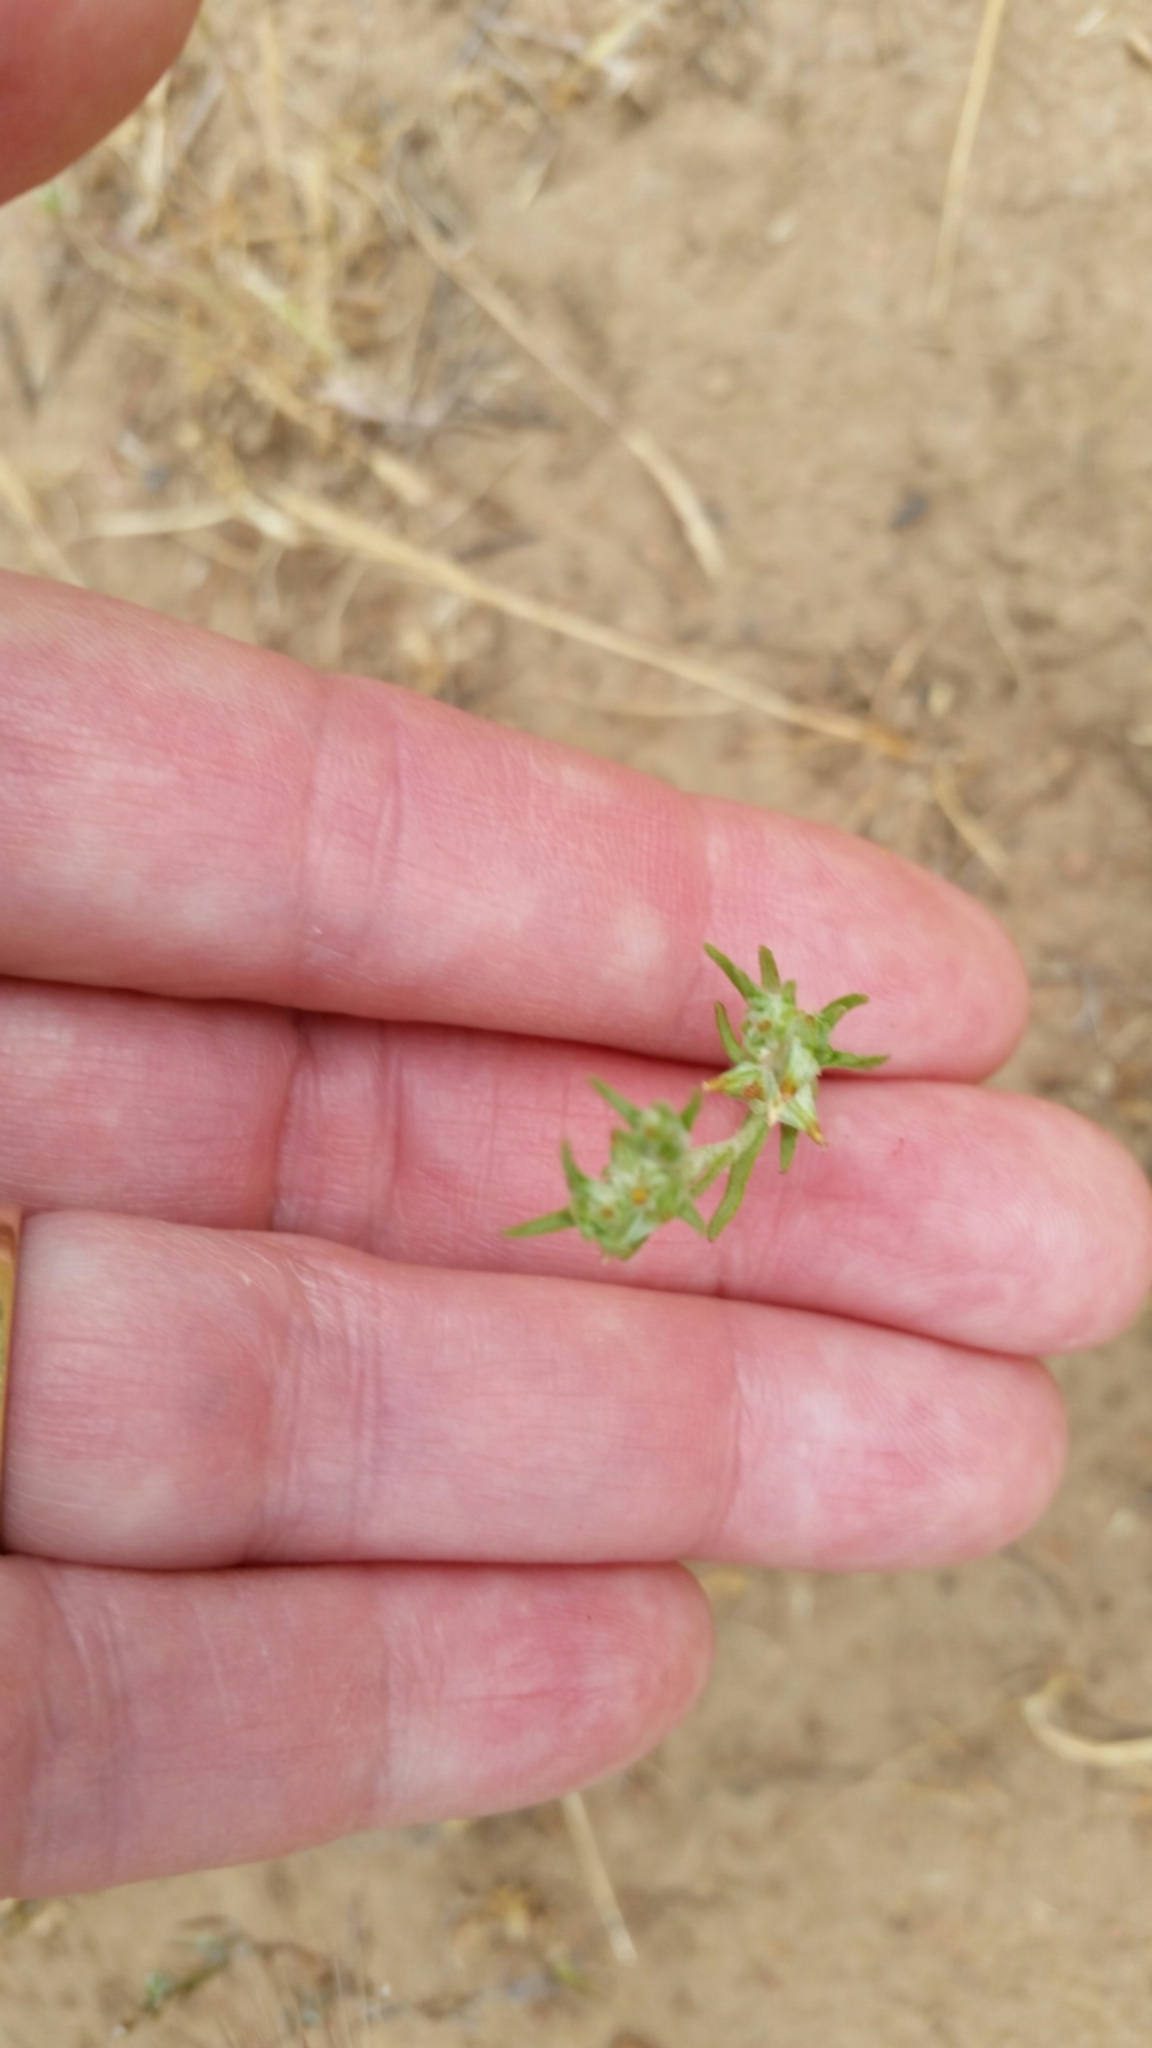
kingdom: Plantae
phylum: Tracheophyta
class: Magnoliopsida
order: Asterales
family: Asteraceae
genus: Logfia
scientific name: Logfia gallica
